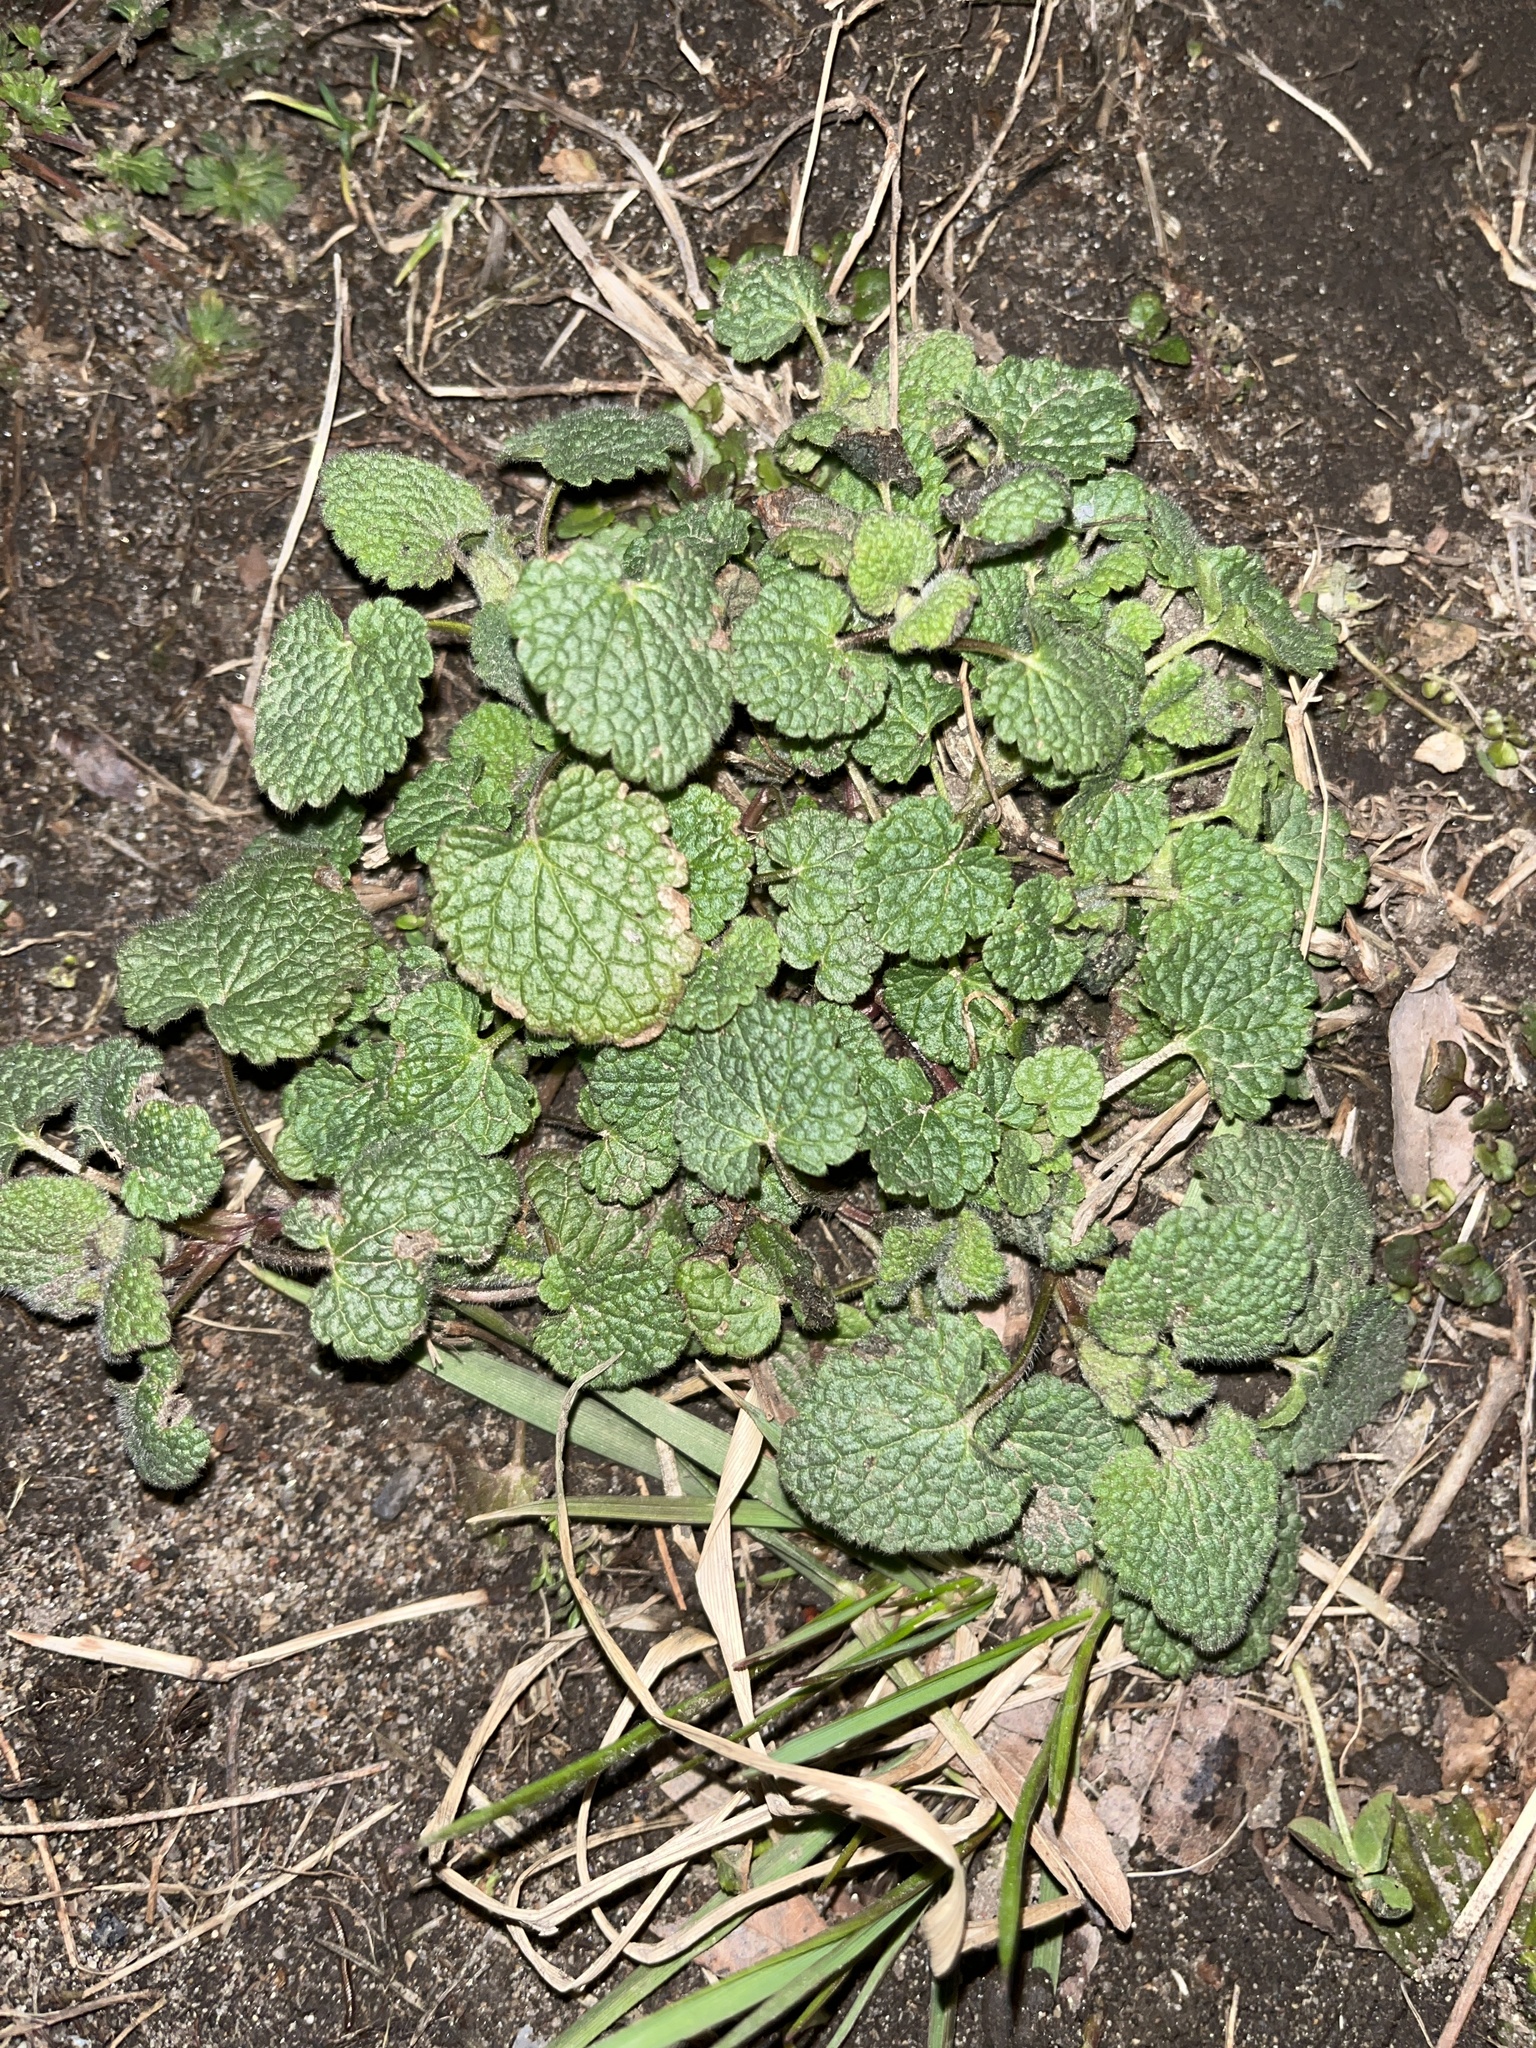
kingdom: Plantae
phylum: Tracheophyta
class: Magnoliopsida
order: Lamiales
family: Lamiaceae
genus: Lamium
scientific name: Lamium purpureum
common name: Red dead-nettle
